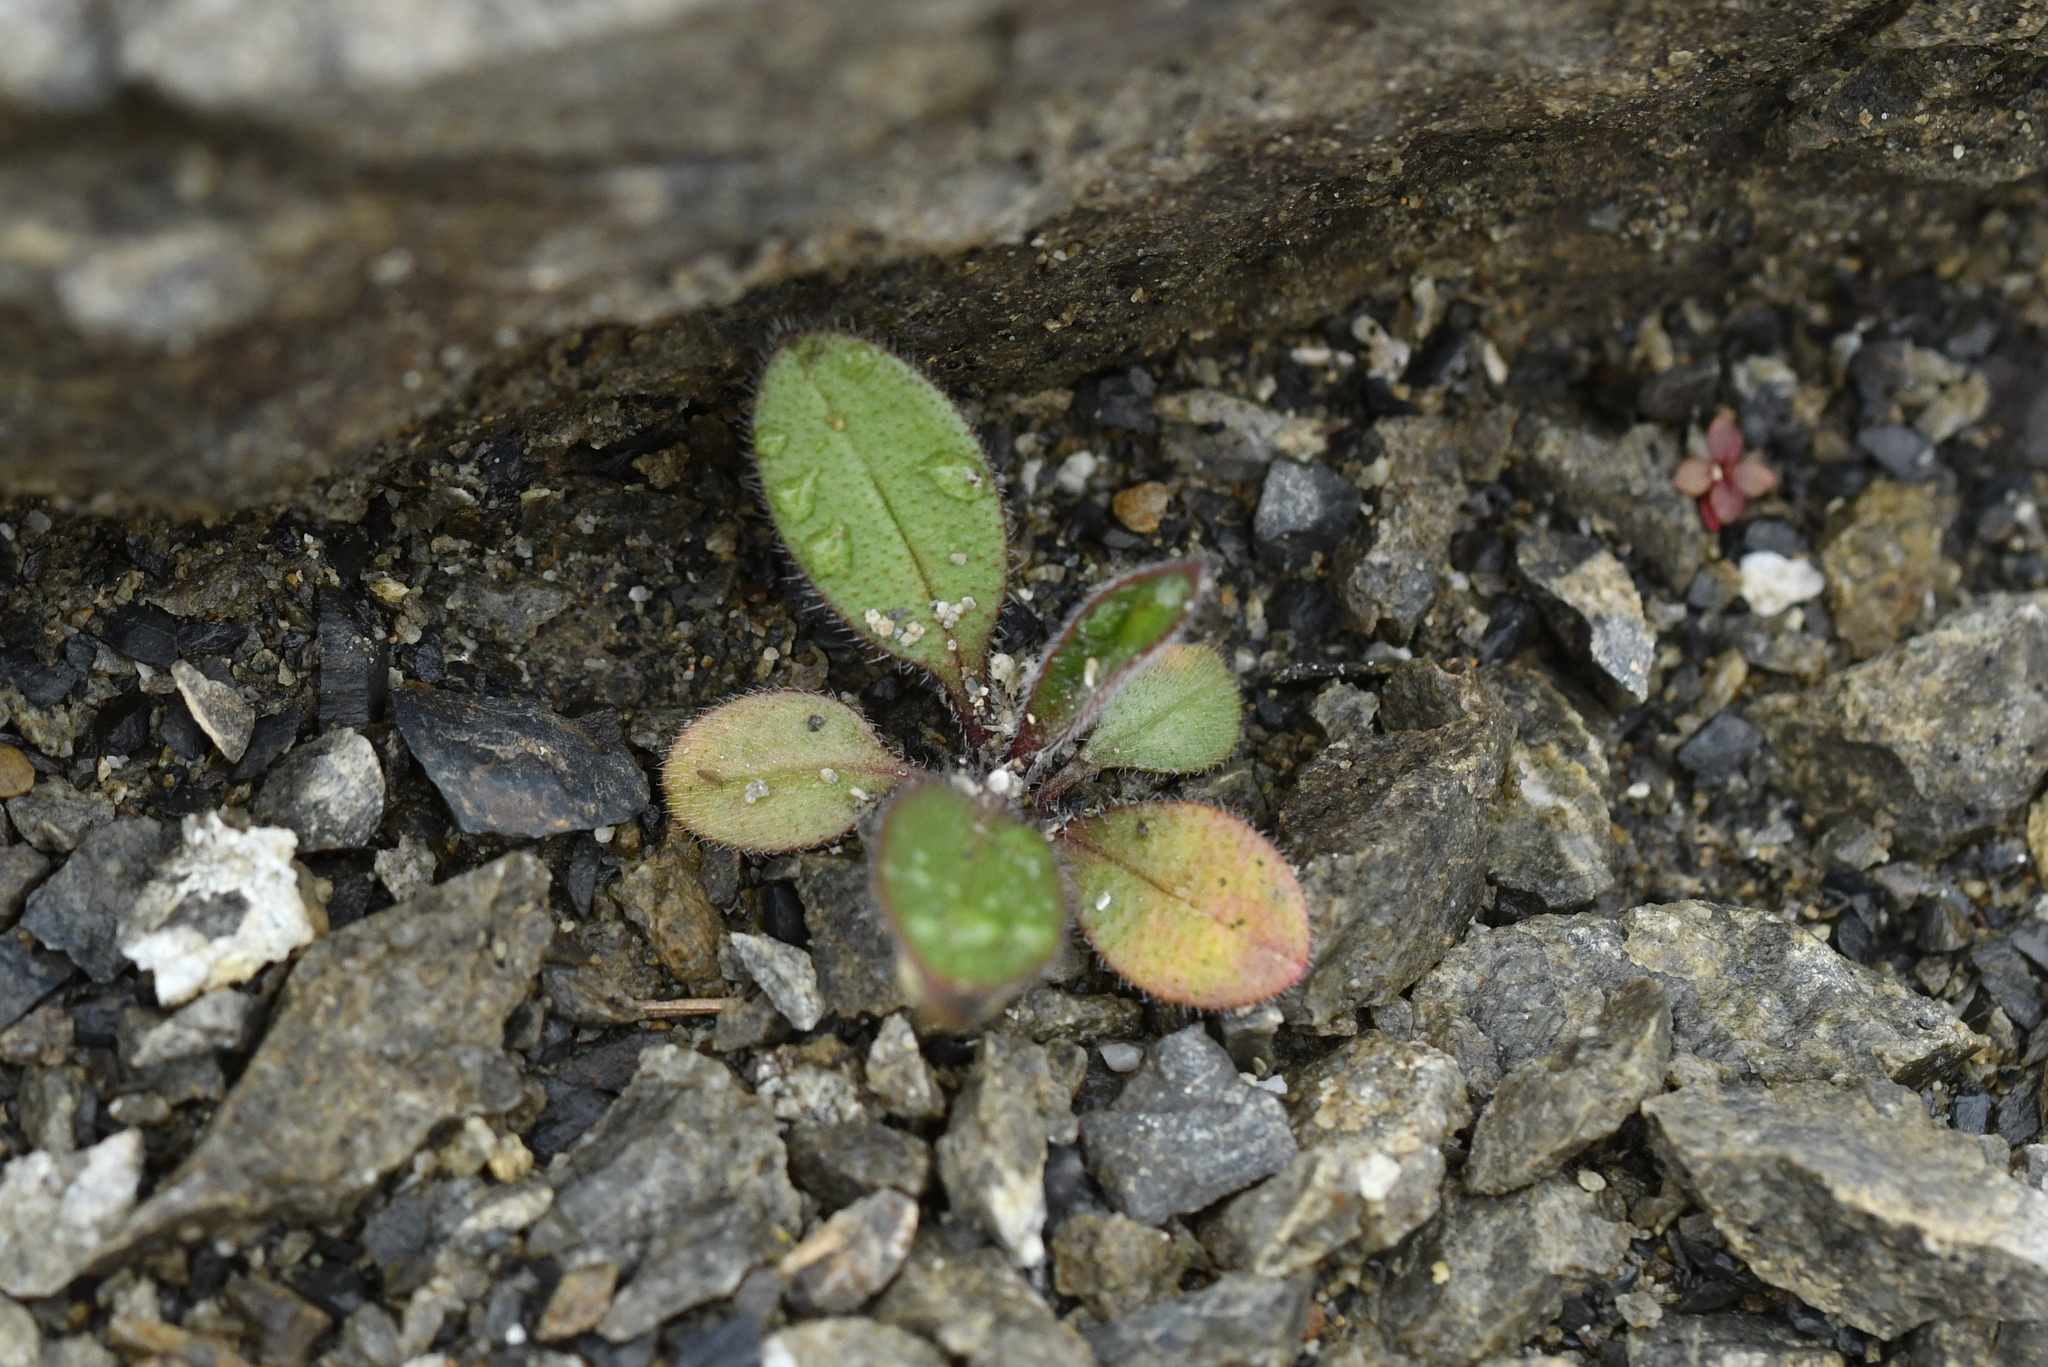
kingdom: Plantae
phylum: Tracheophyta
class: Magnoliopsida
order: Boraginales
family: Boraginaceae
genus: Myosotis
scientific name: Myosotis australis
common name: Australian forget-me-not
